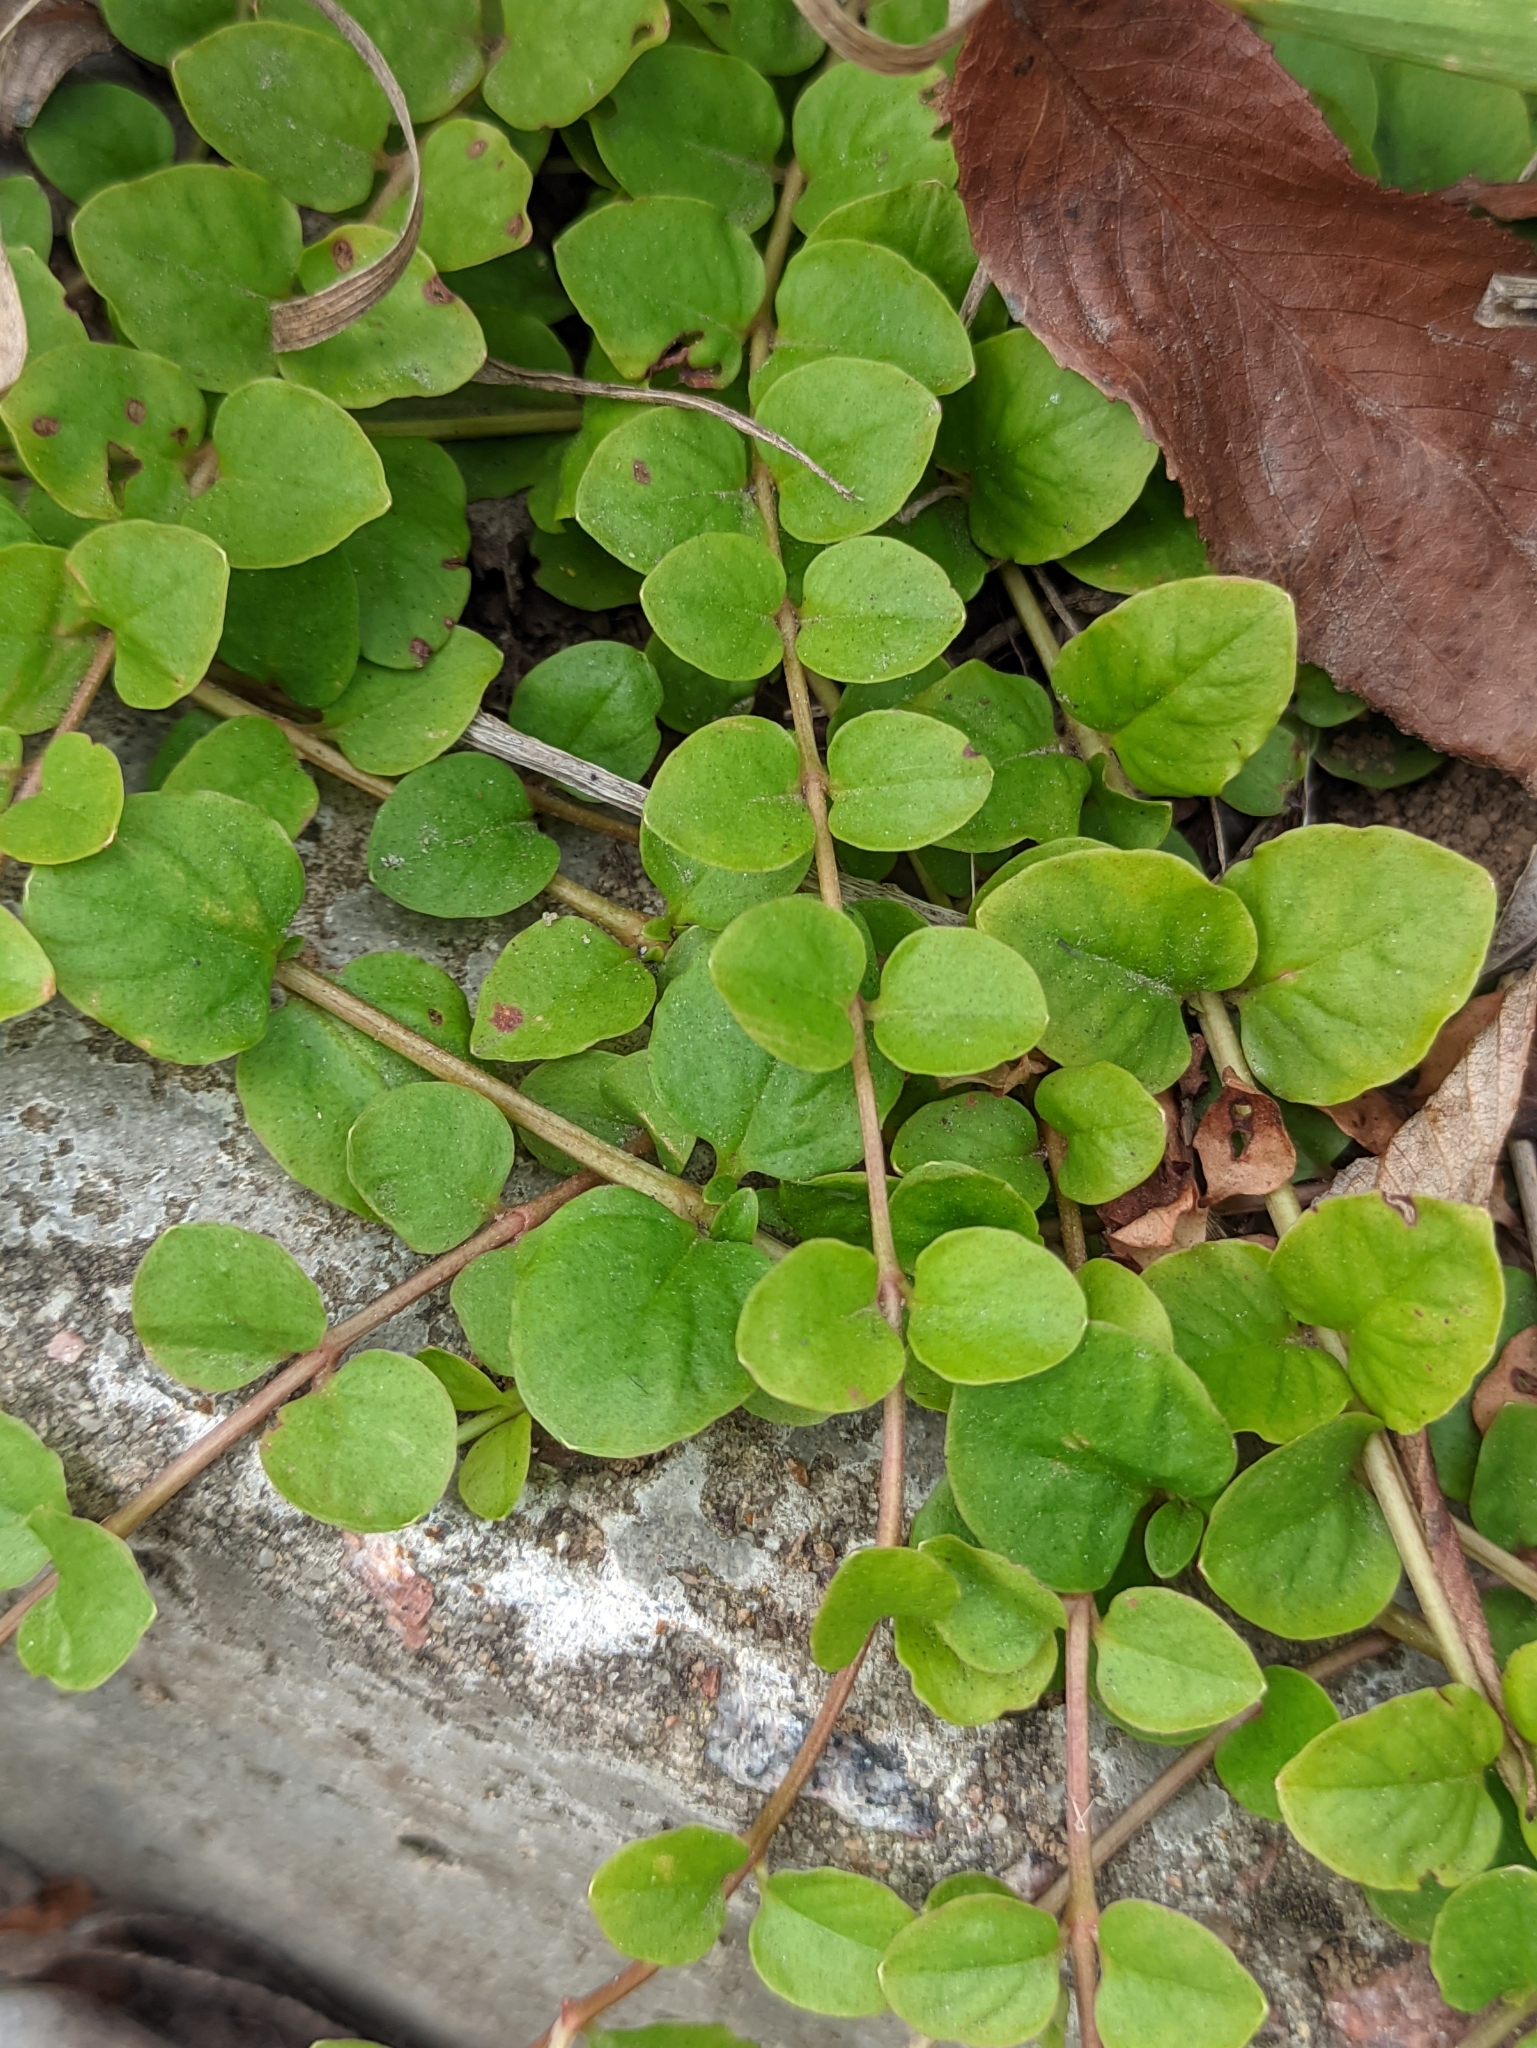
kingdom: Plantae
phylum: Tracheophyta
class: Magnoliopsida
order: Ericales
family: Primulaceae
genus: Lysimachia
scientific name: Lysimachia nummularia
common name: Moneywort
